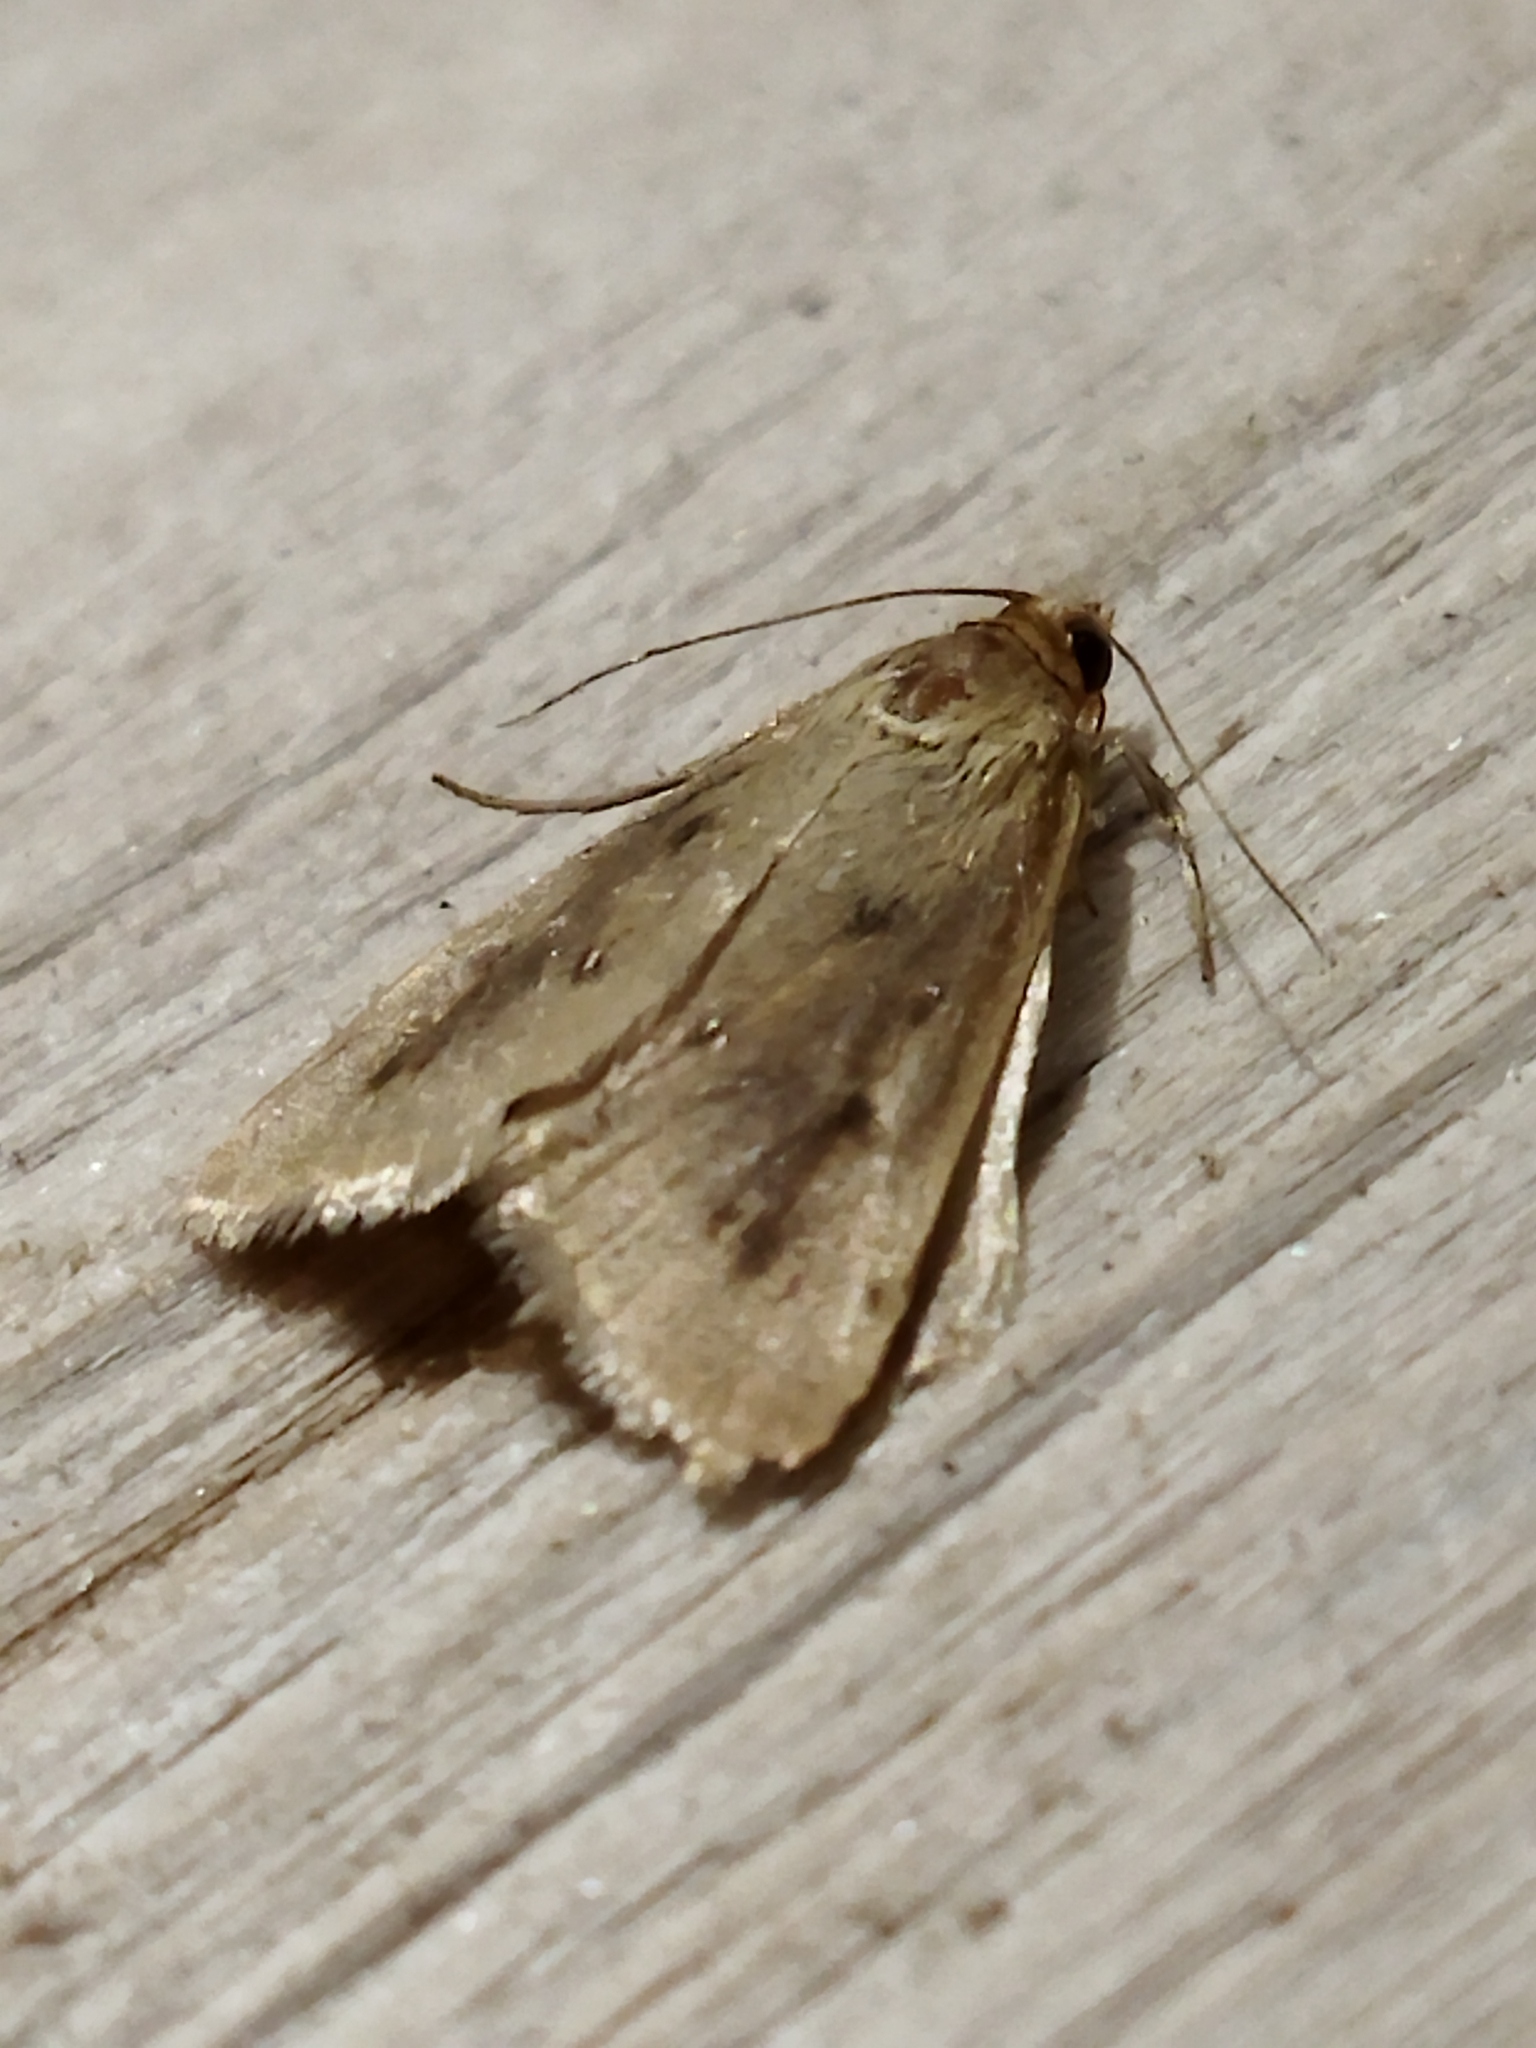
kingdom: Animalia
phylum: Arthropoda
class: Insecta
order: Lepidoptera
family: Crambidae
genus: Achyra
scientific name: Achyra nudalis
